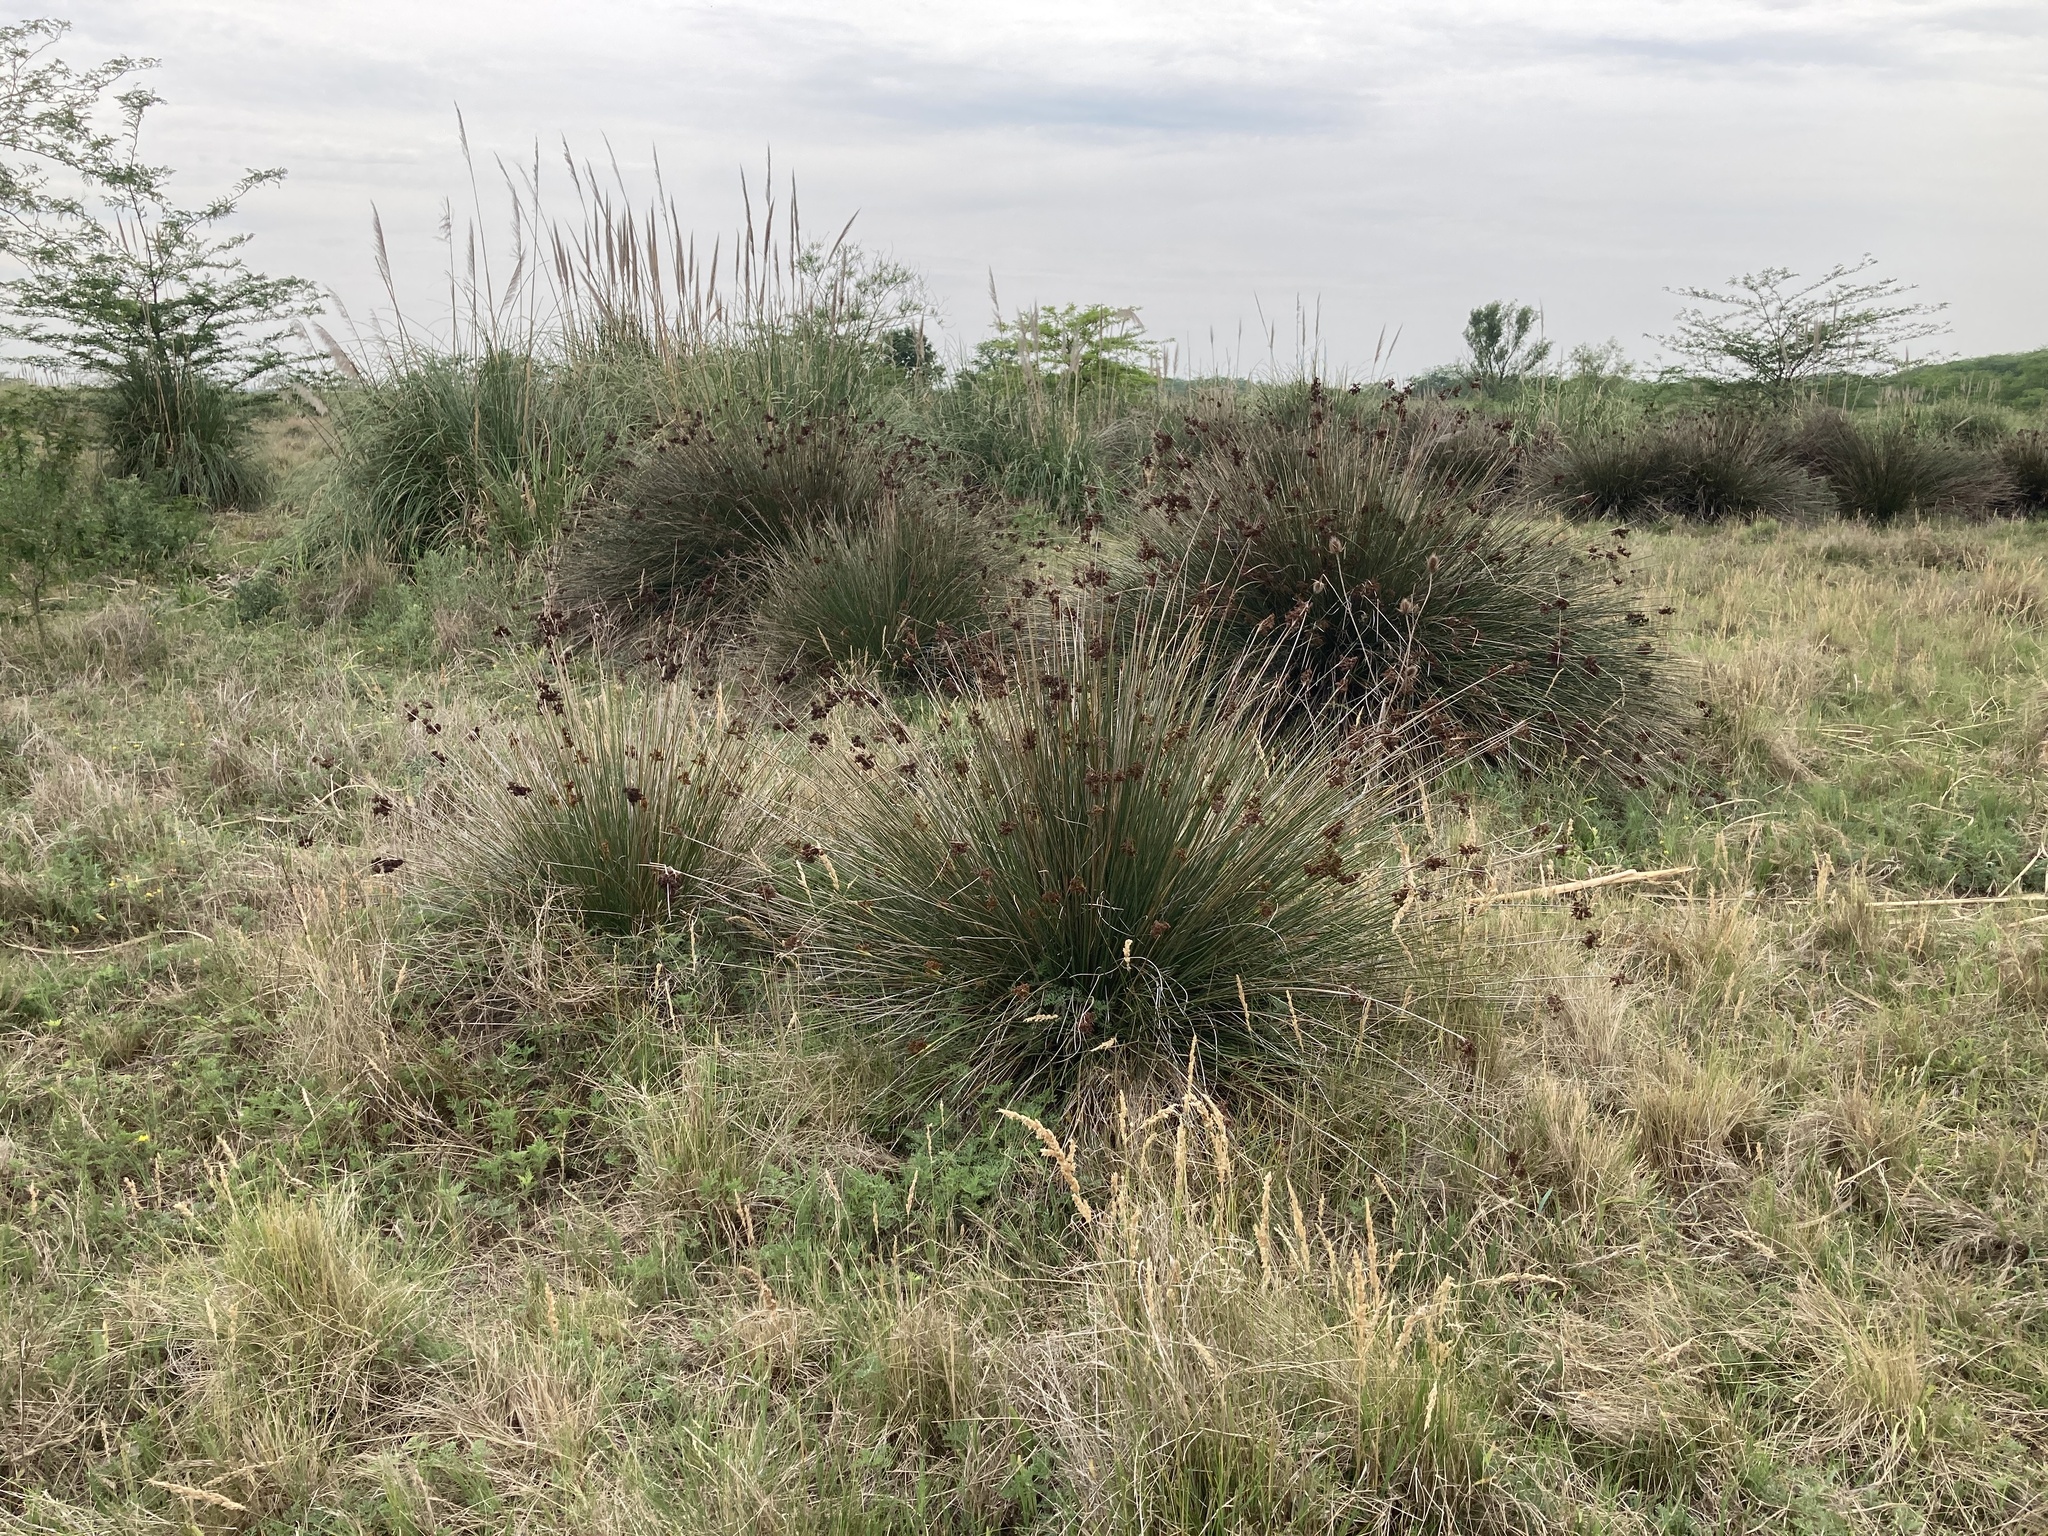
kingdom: Plantae
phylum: Tracheophyta
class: Liliopsida
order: Poales
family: Juncaceae
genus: Juncus
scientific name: Juncus acutus
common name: Sharp rush
